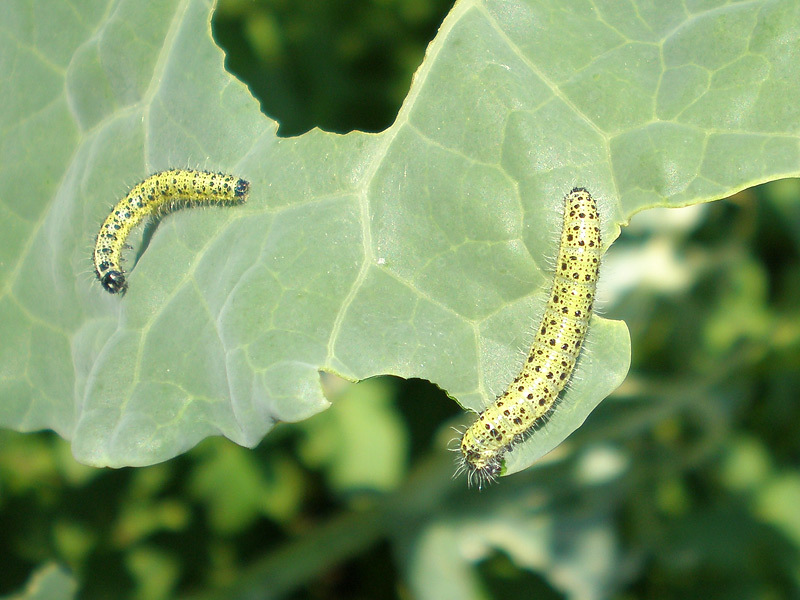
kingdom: Animalia
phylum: Arthropoda
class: Insecta
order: Lepidoptera
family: Pieridae
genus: Pieris
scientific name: Pieris brassicae
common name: Large white
